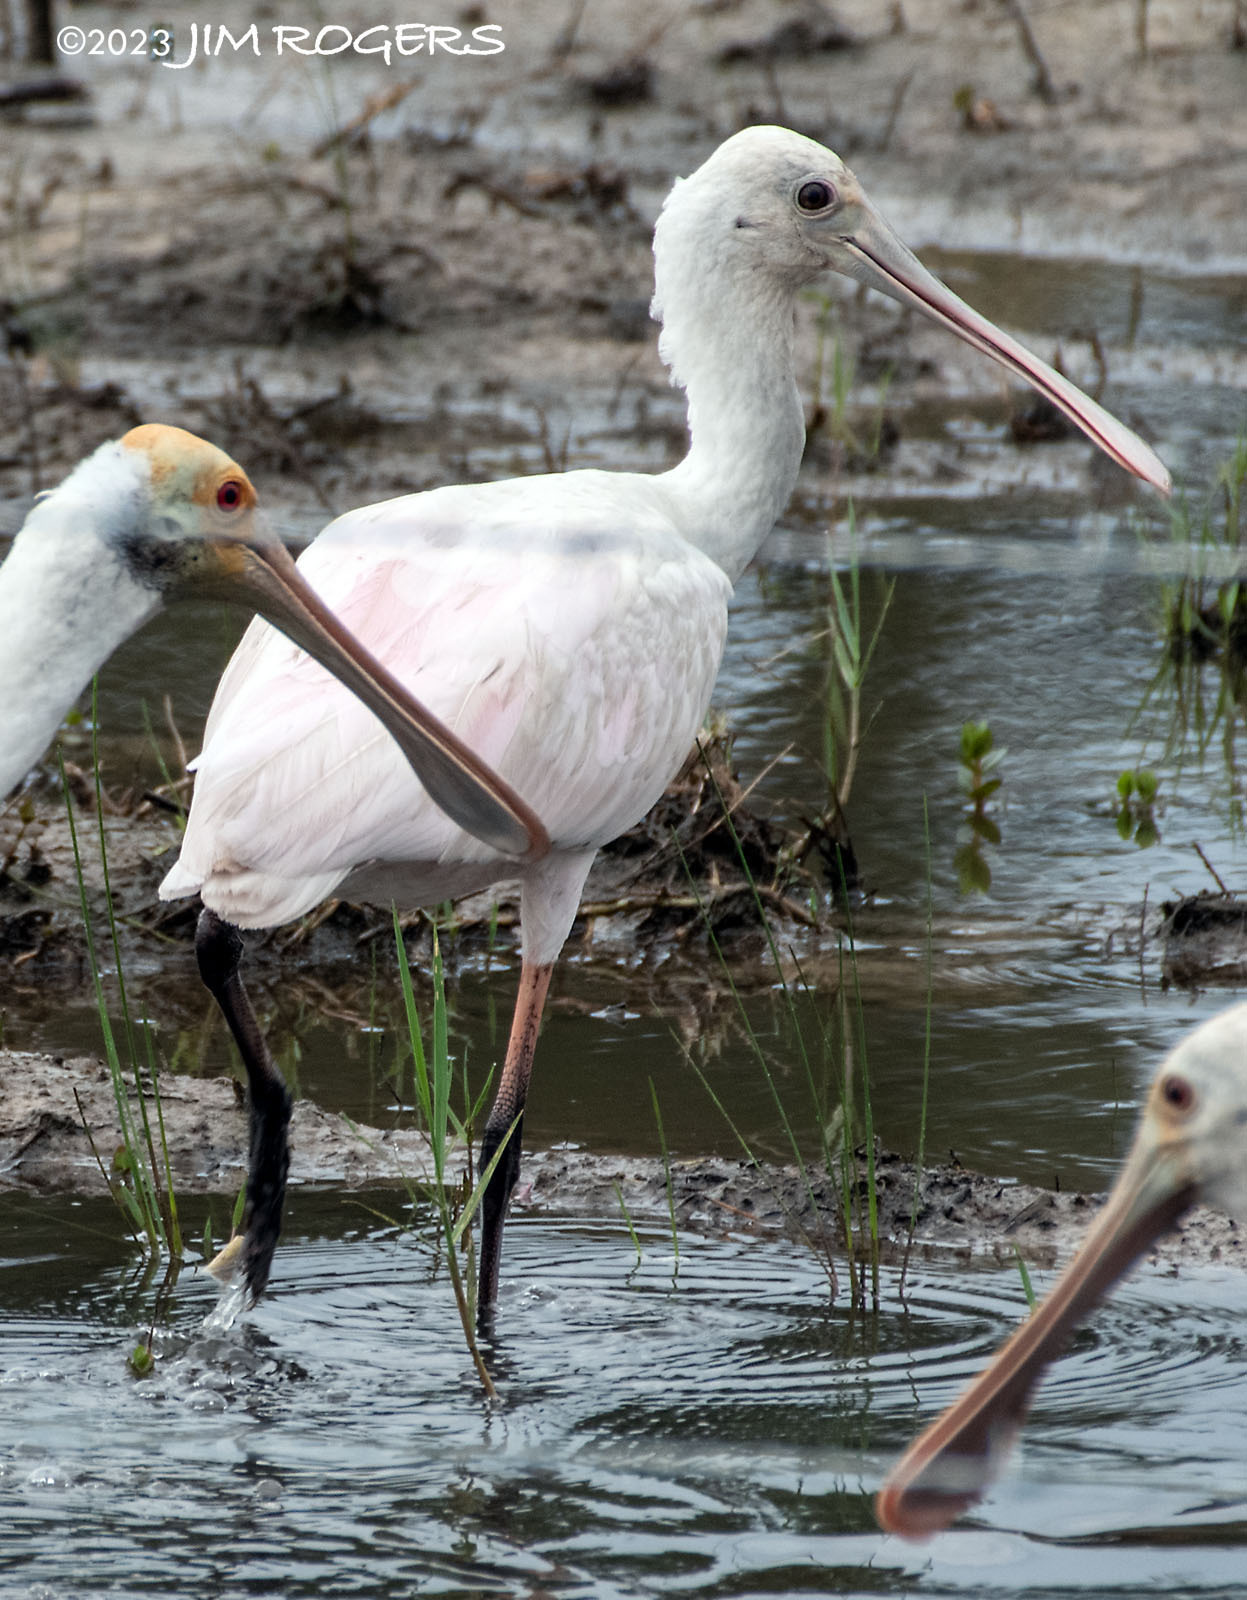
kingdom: Animalia
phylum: Chordata
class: Aves
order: Pelecaniformes
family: Threskiornithidae
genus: Platalea
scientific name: Platalea ajaja
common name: Roseate spoonbill
